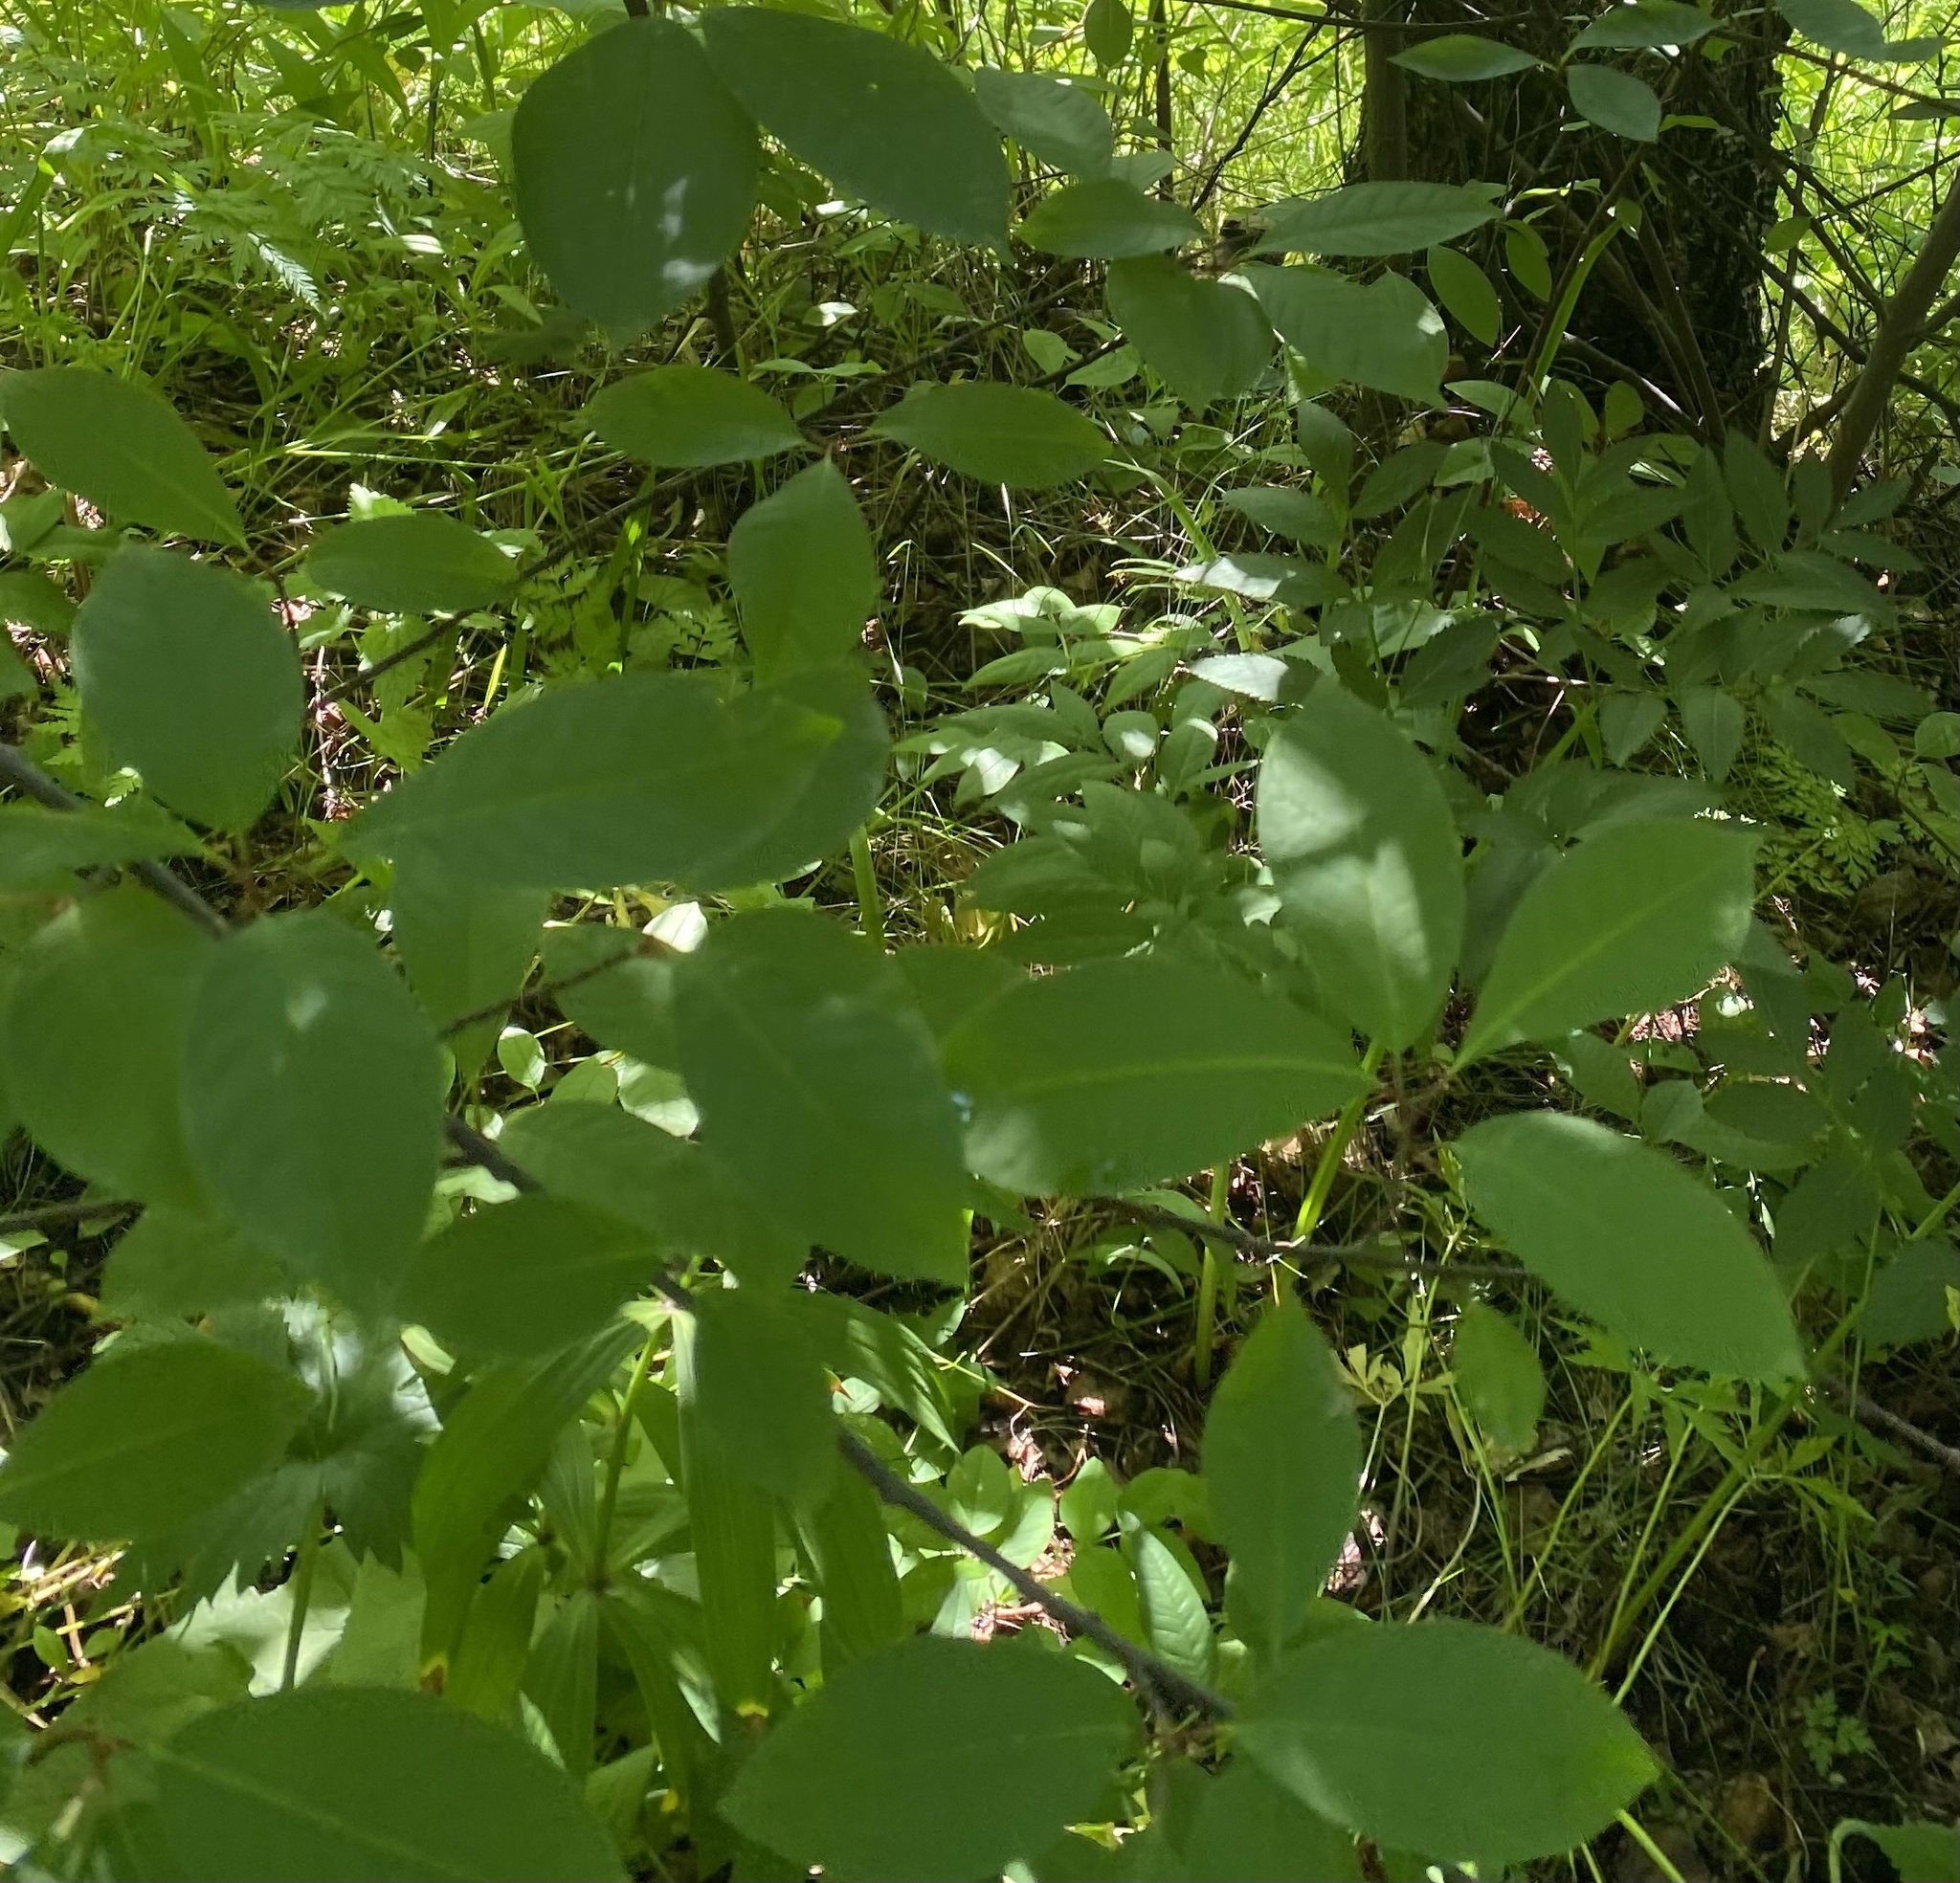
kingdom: Plantae
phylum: Tracheophyta
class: Magnoliopsida
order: Rosales
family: Rosaceae
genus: Prunus
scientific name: Prunus padus
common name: Bird cherry
